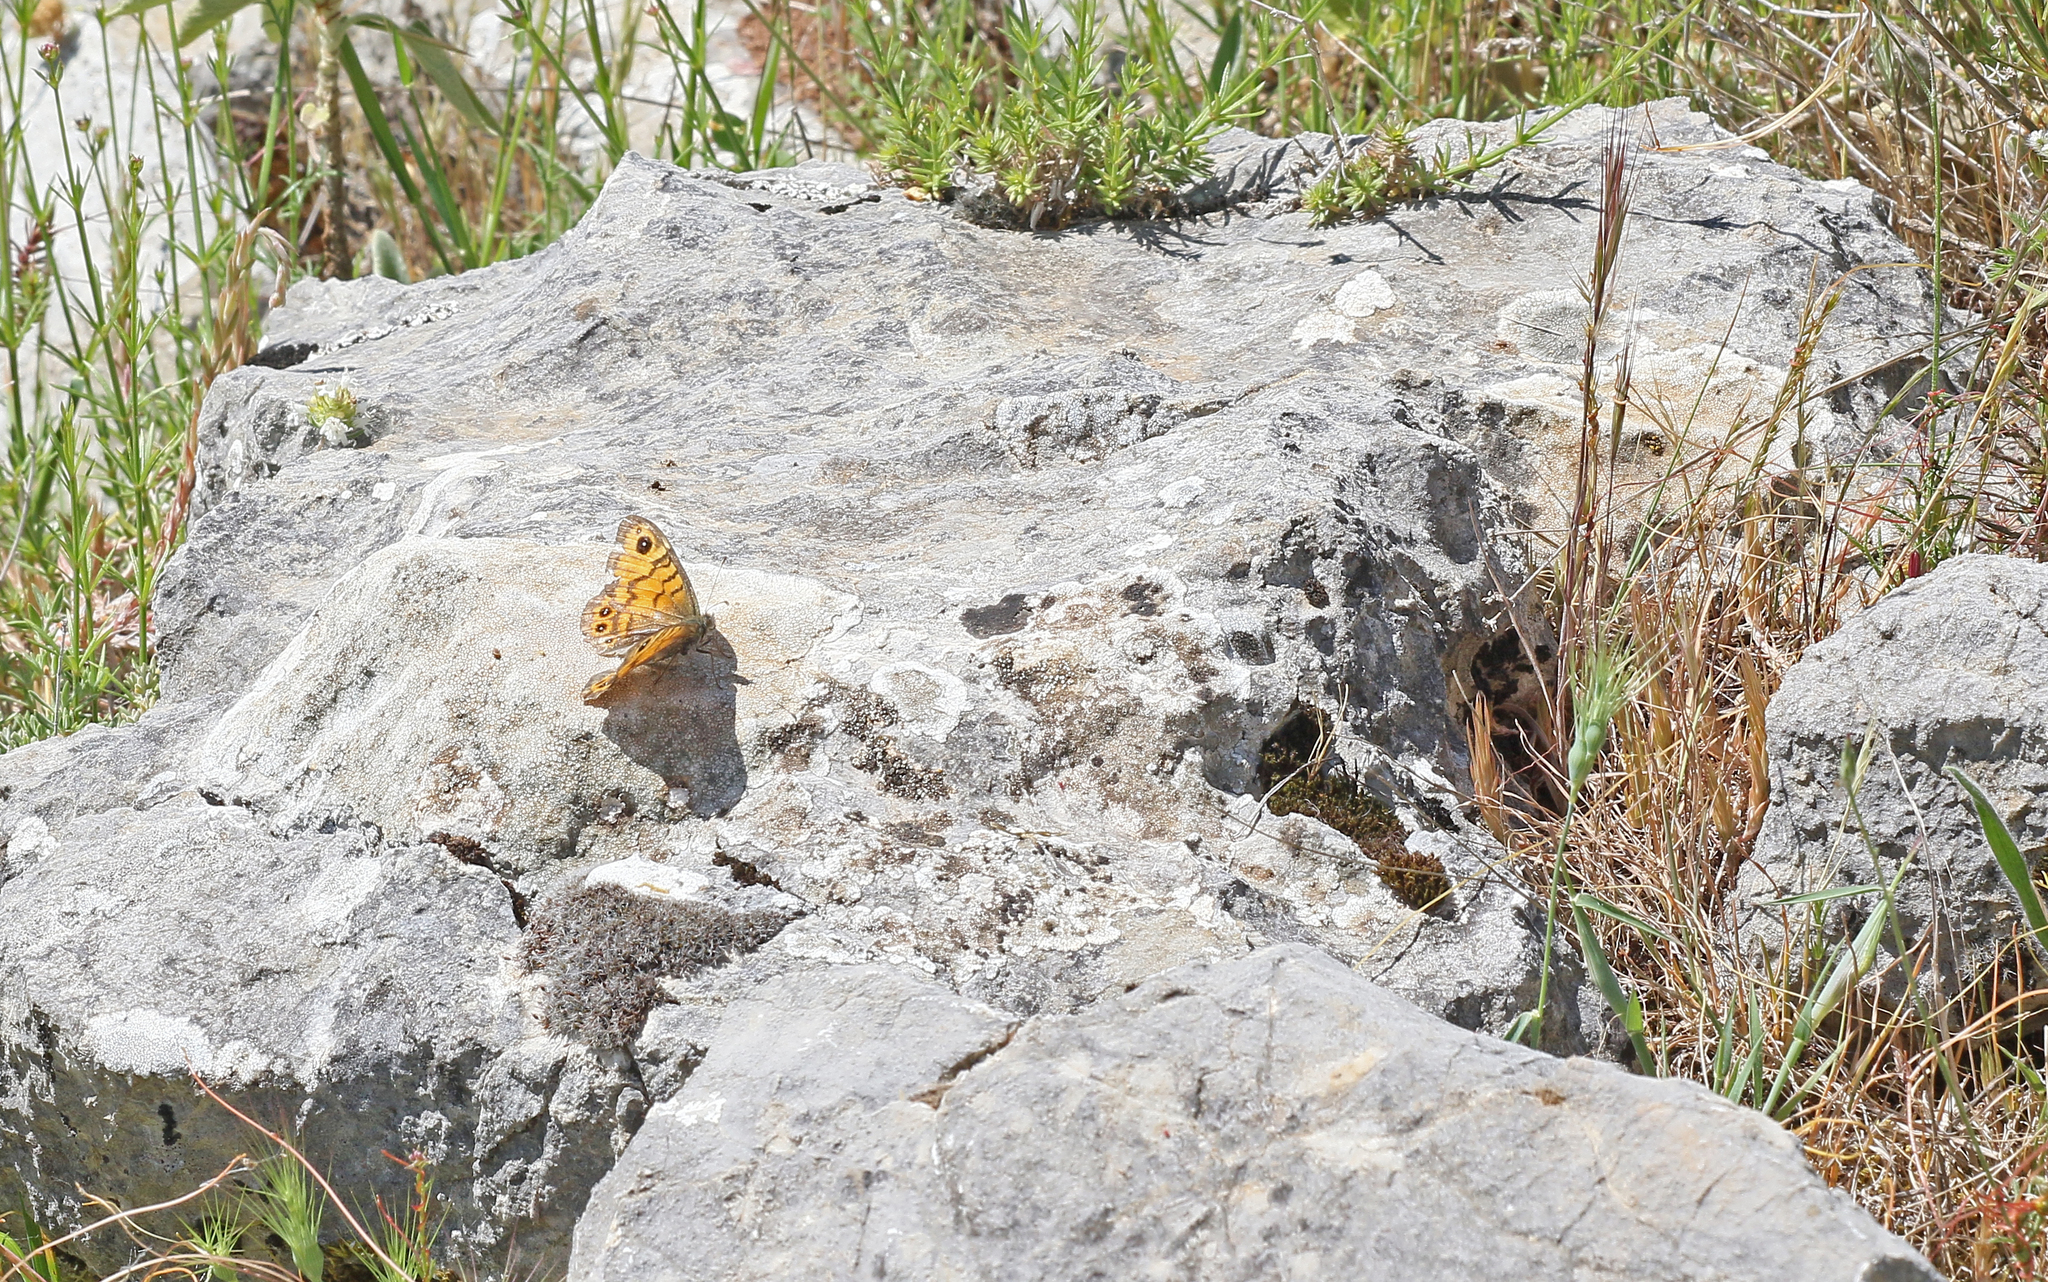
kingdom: Animalia
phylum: Arthropoda
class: Insecta
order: Lepidoptera
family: Nymphalidae
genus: Pararge
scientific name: Pararge Lasiommata megera
